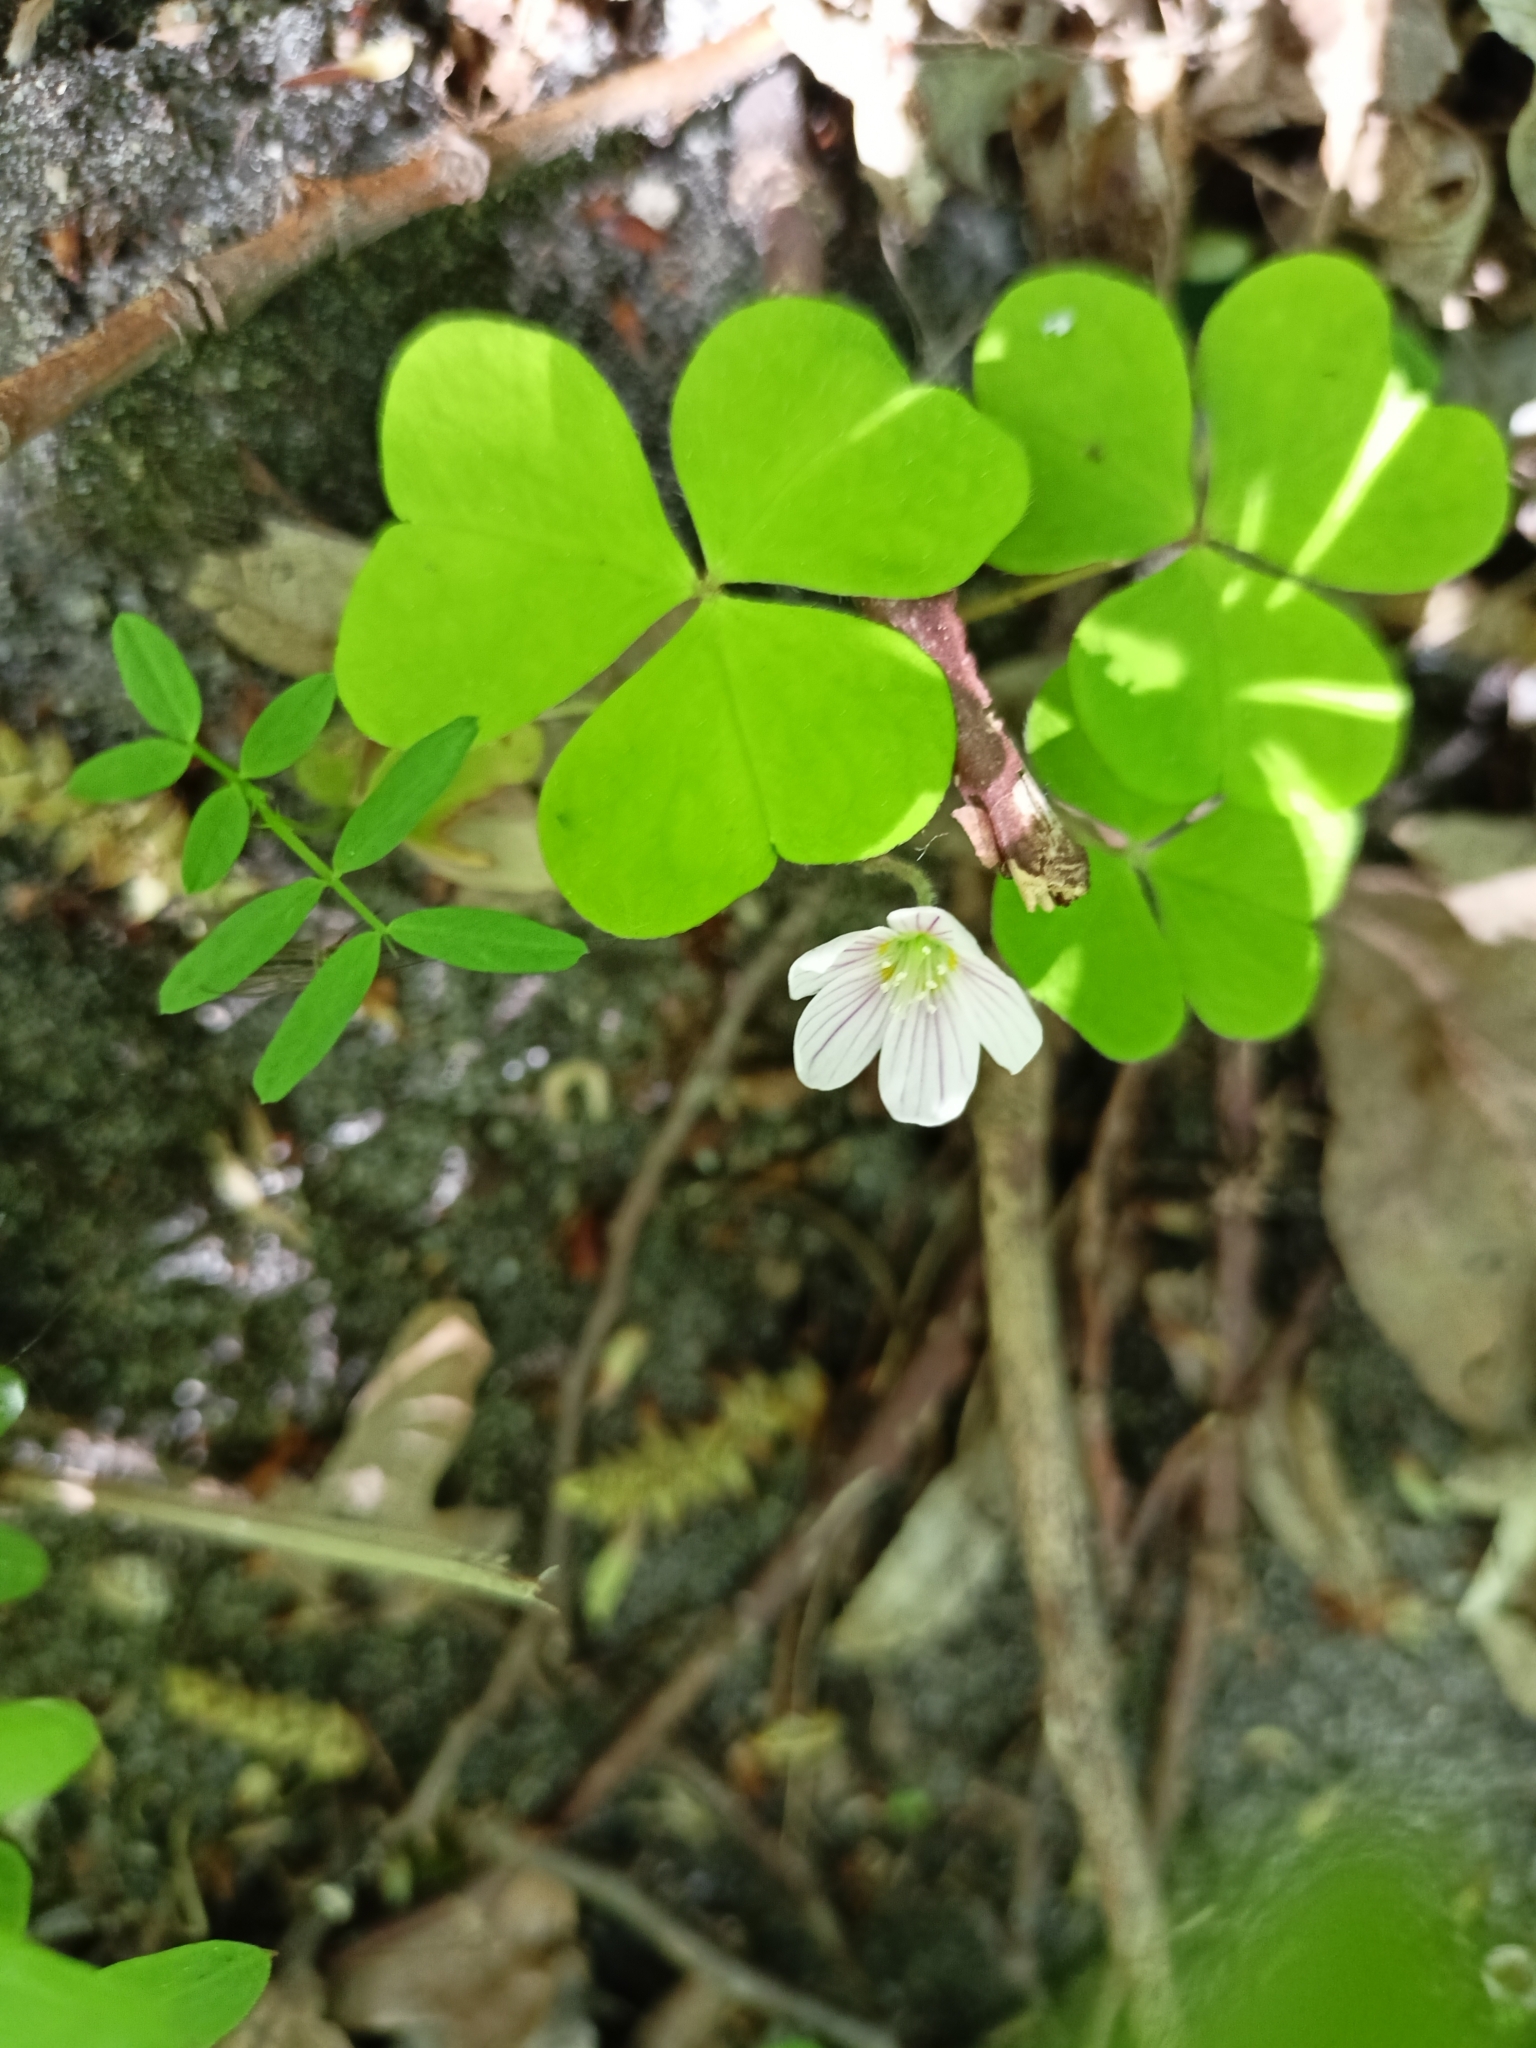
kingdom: Plantae
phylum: Tracheophyta
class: Magnoliopsida
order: Oxalidales
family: Oxalidaceae
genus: Oxalis
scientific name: Oxalis acetosella
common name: Wood-sorrel
